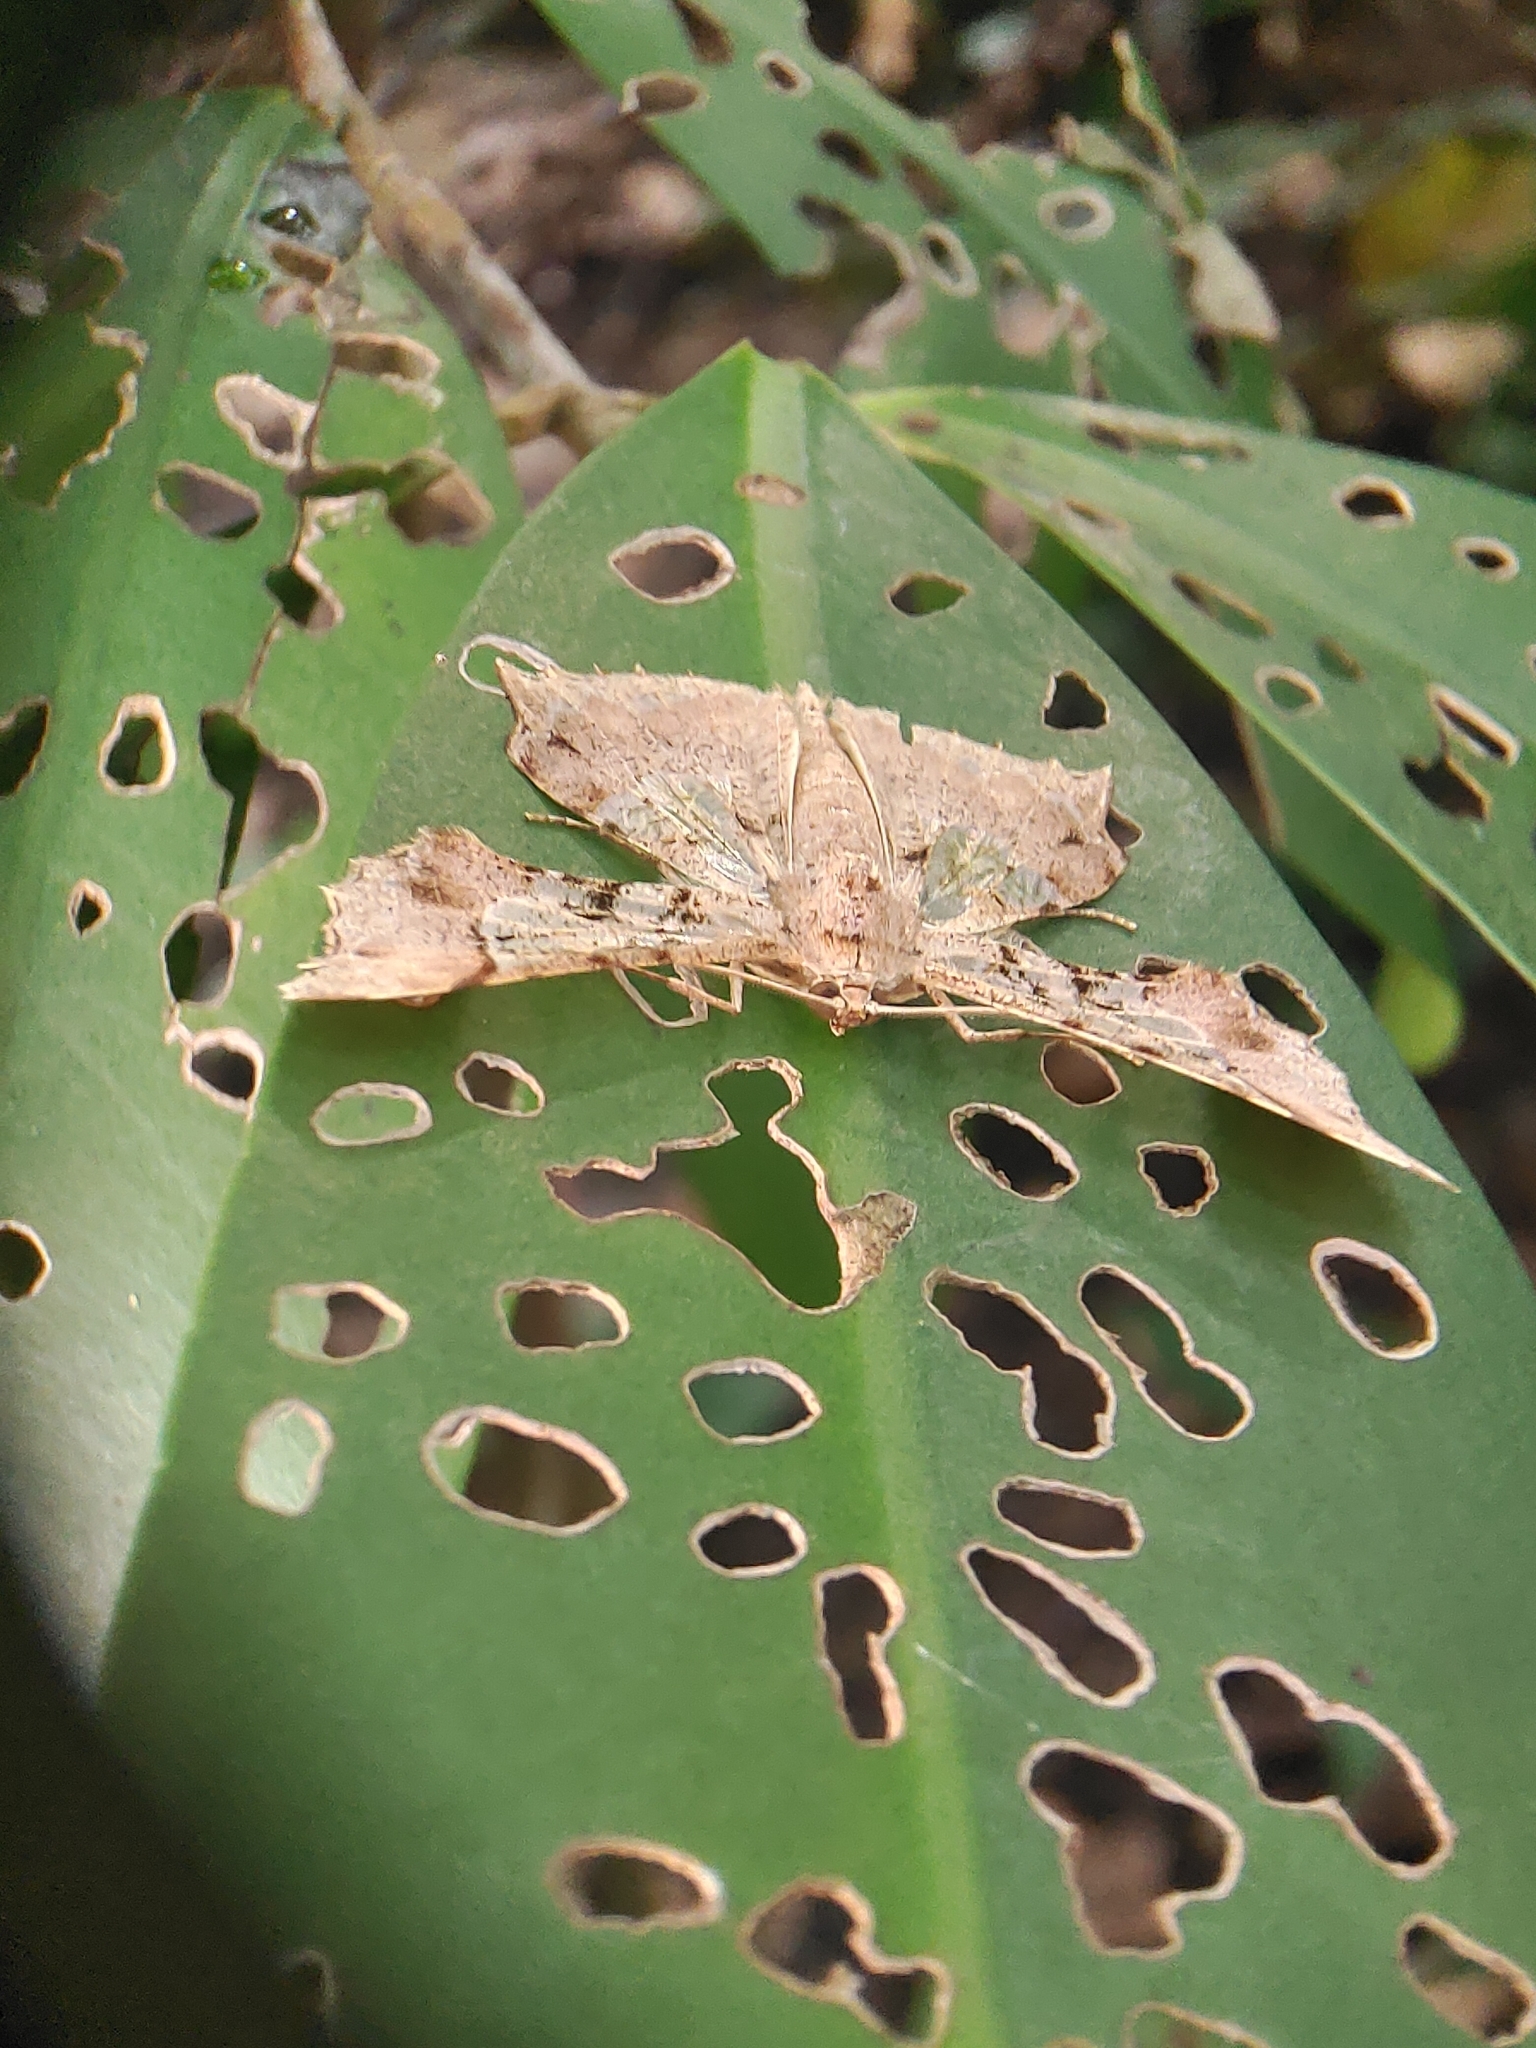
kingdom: Animalia
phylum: Arthropoda
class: Insecta
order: Lepidoptera
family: Geometridae
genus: Krananda
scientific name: Krananda semihyalina
